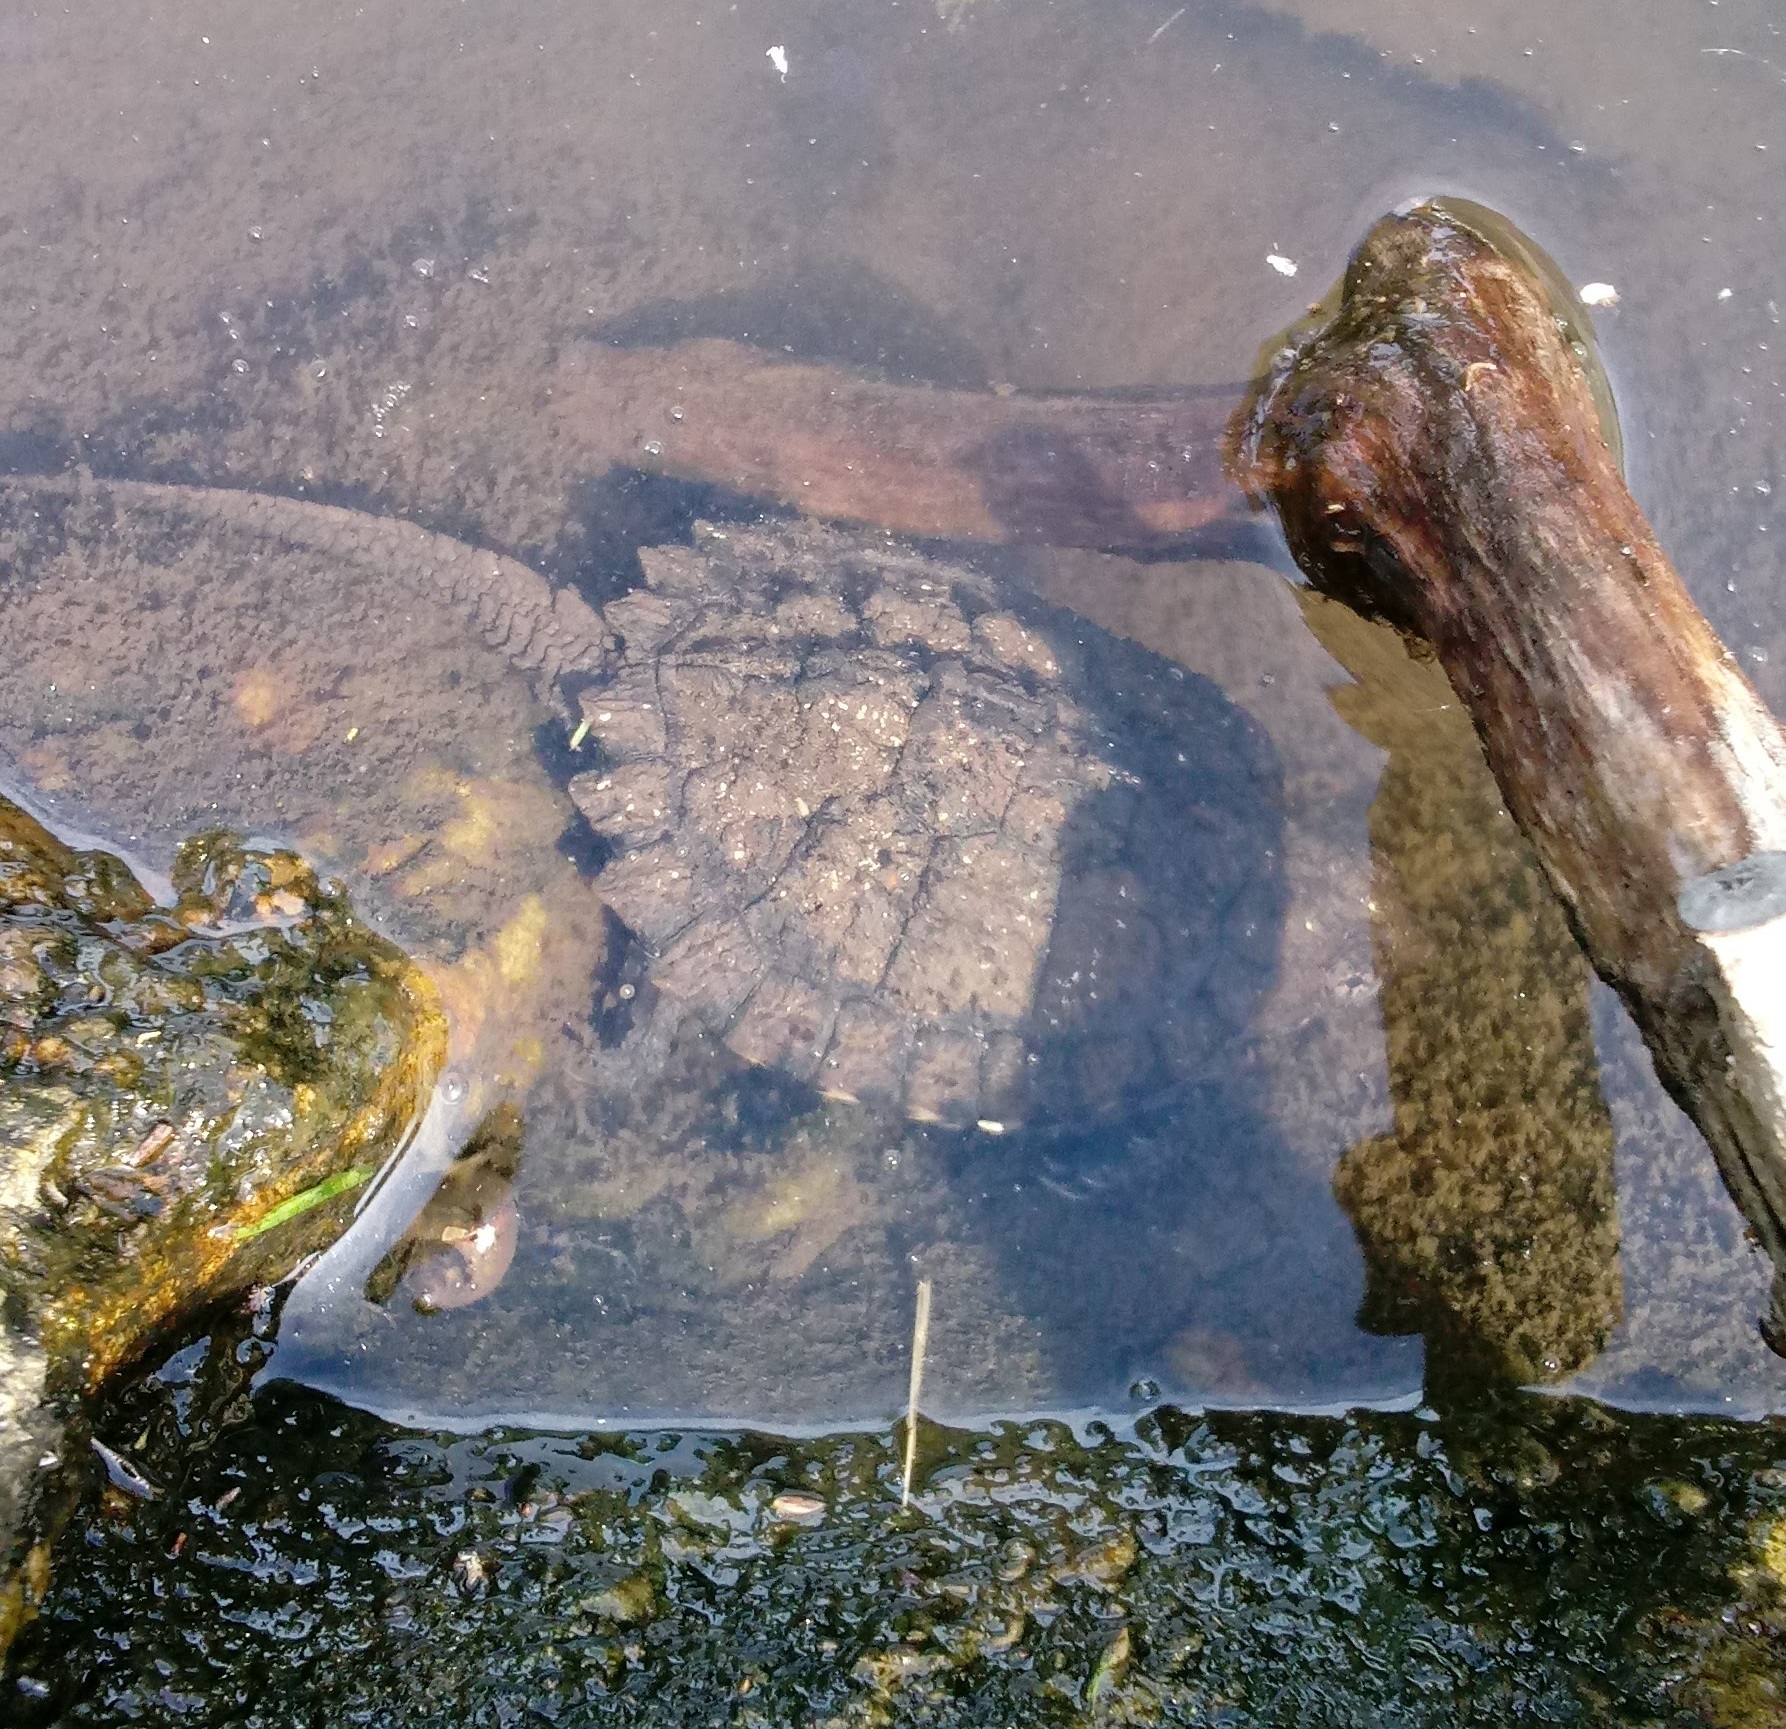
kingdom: Animalia
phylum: Chordata
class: Testudines
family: Chelydridae
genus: Chelydra
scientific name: Chelydra serpentina
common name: Common snapping turtle
